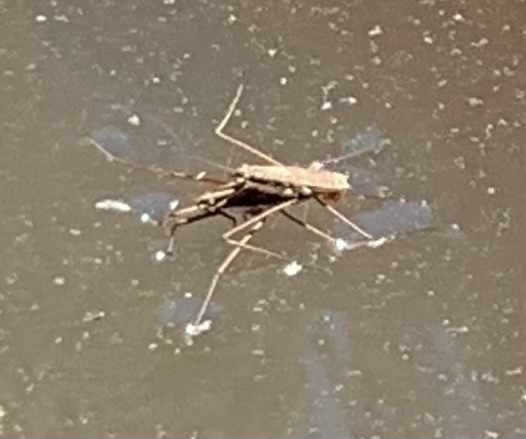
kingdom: Animalia
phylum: Arthropoda
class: Insecta
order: Hemiptera
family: Gerridae
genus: Aquarius
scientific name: Aquarius remigis
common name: Common water strider
